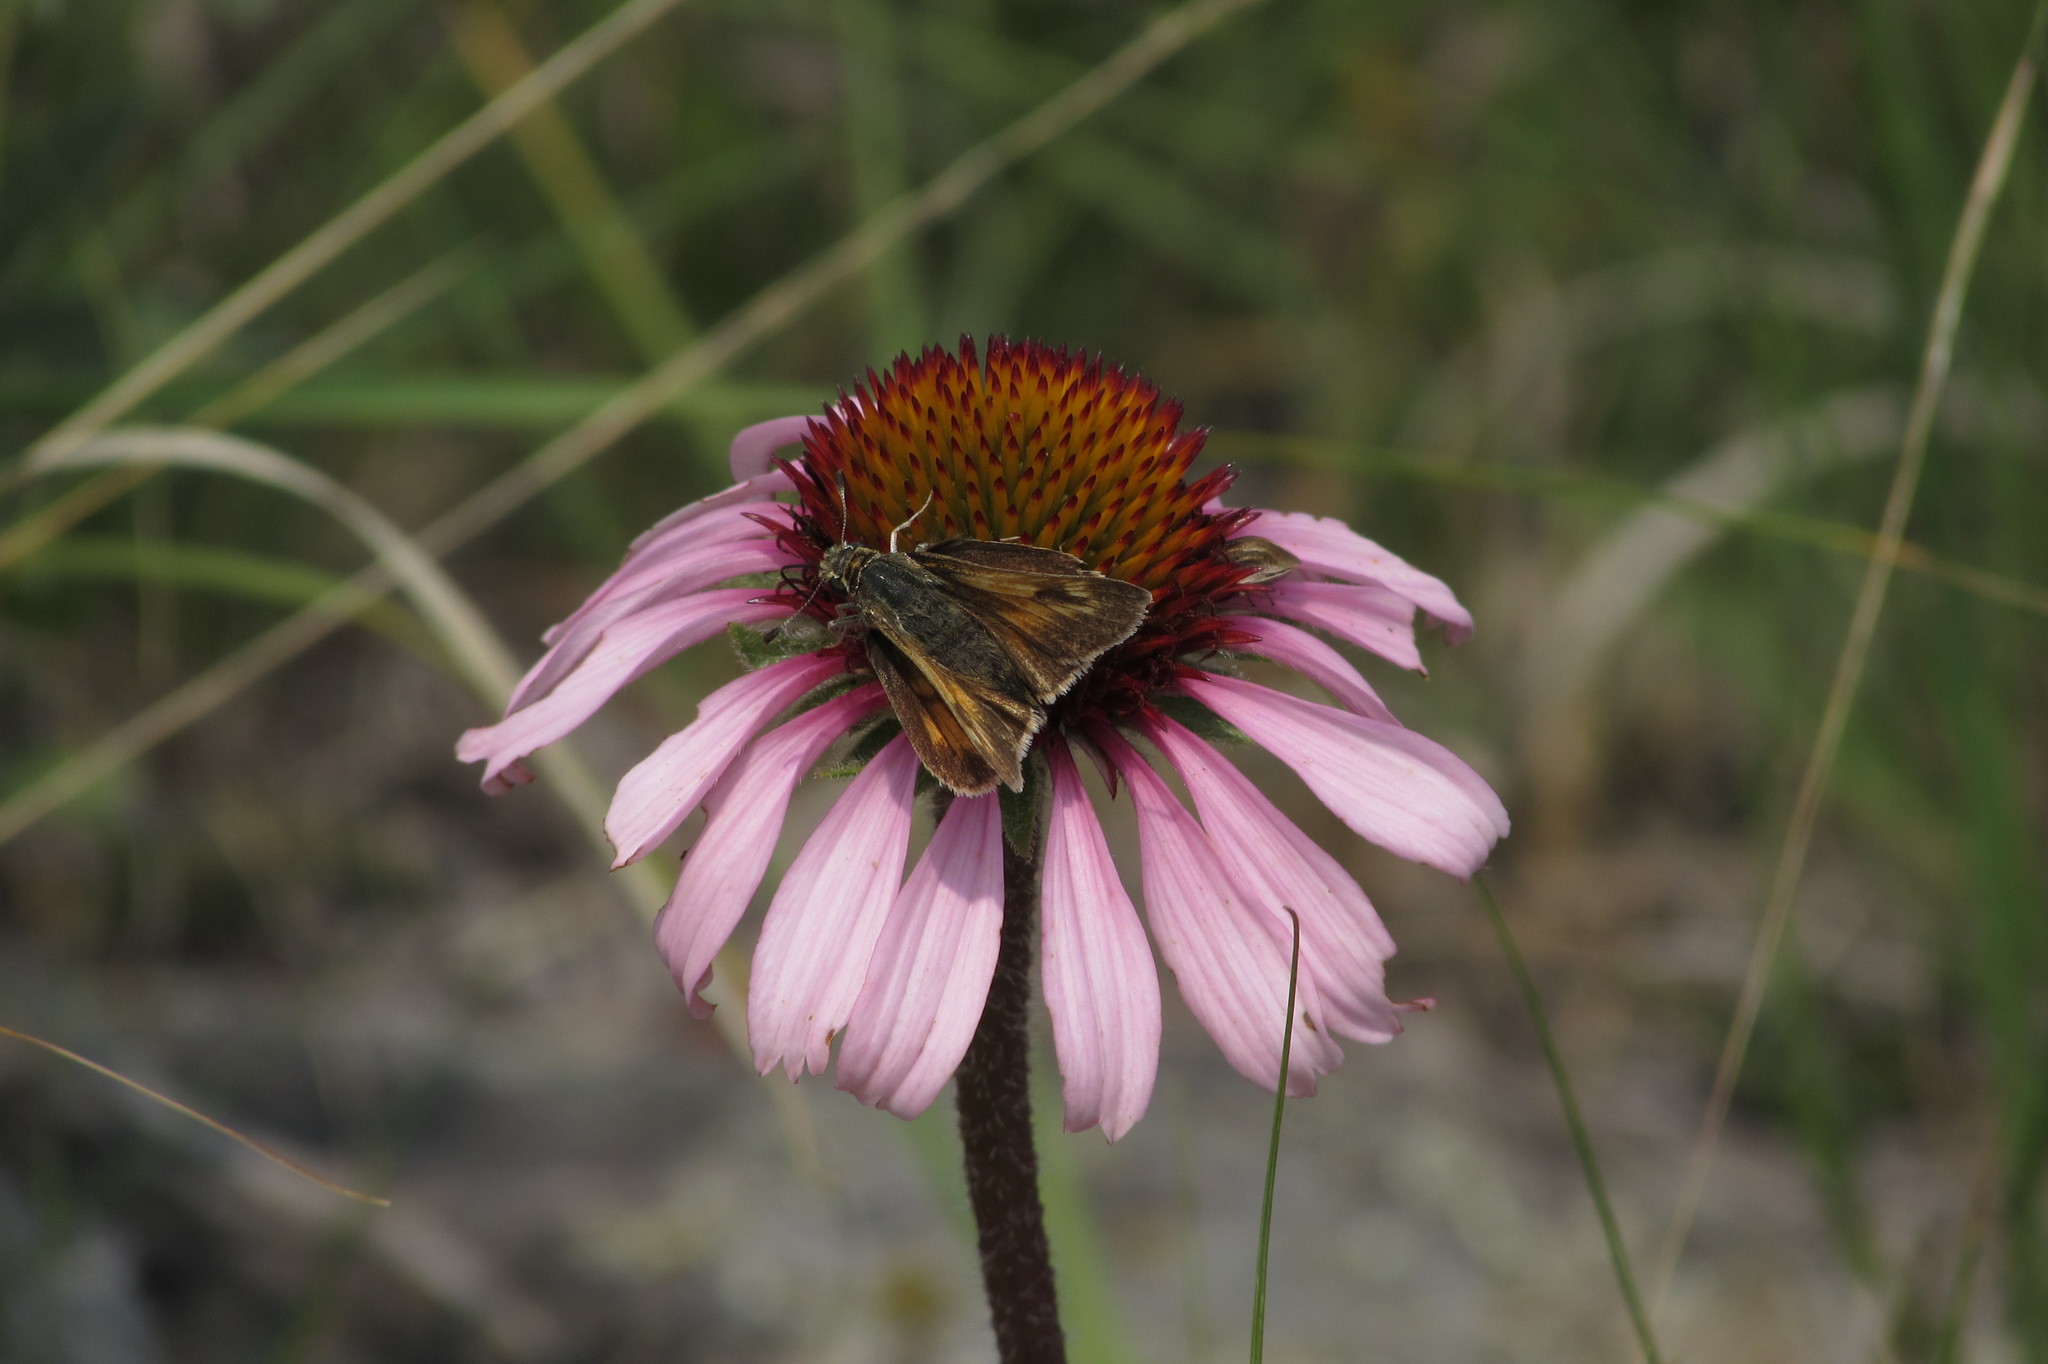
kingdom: Animalia
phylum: Arthropoda
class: Insecta
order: Lepidoptera
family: Hesperiidae
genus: Hesperia
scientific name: Hesperia dacotae
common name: Dakota skipper
